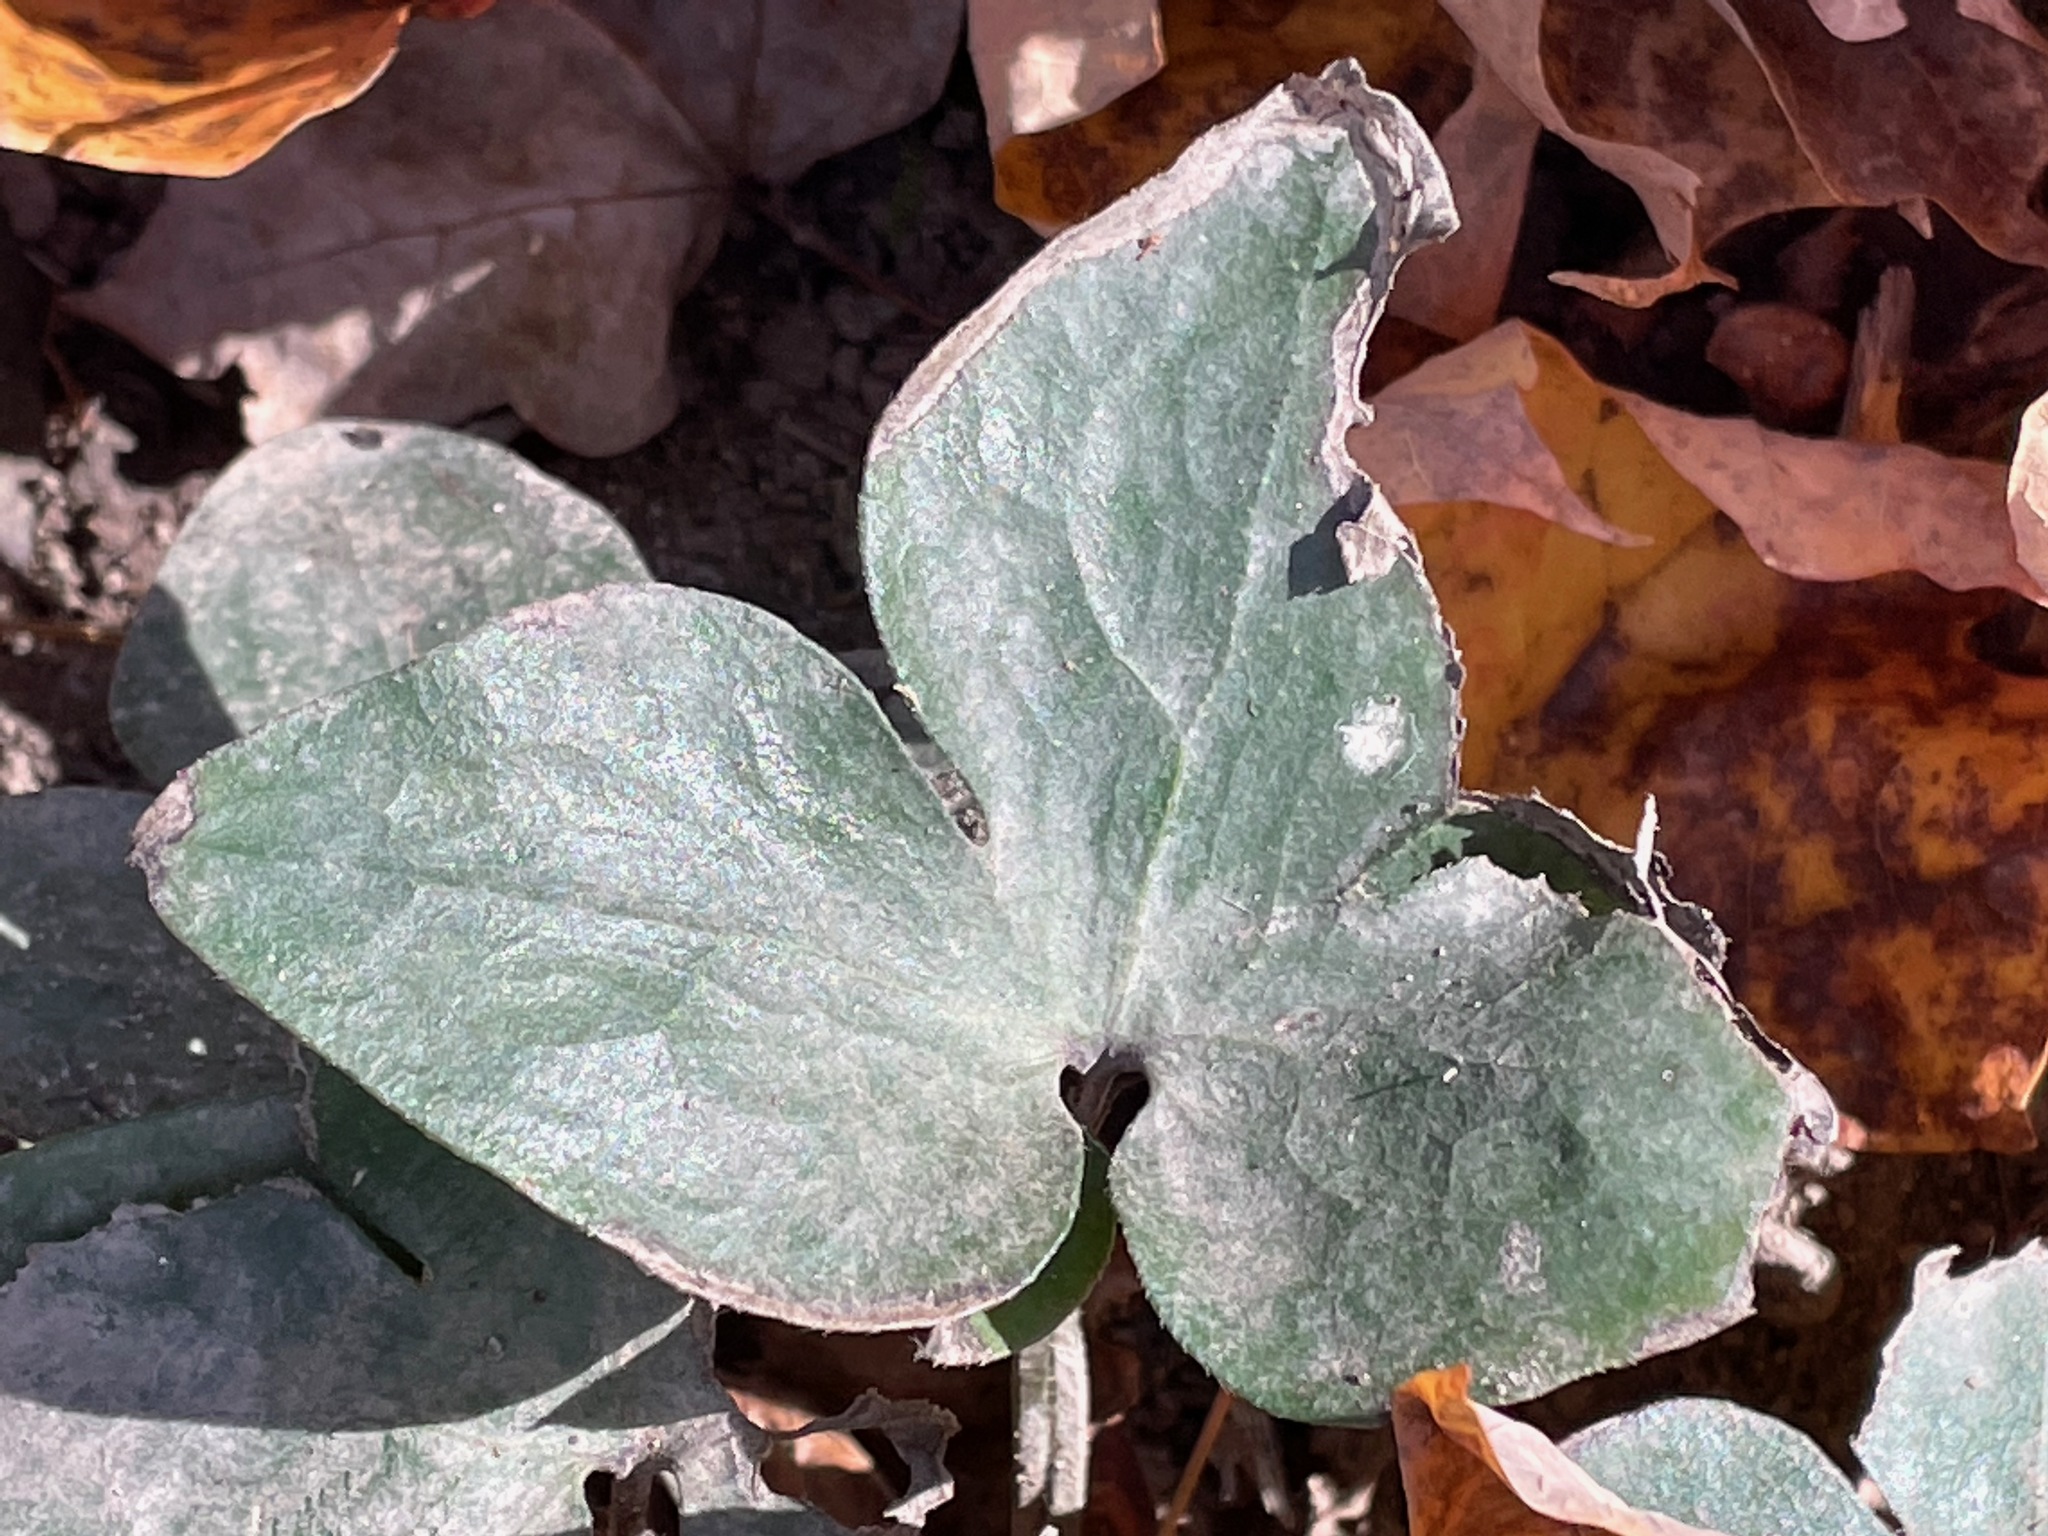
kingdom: Plantae
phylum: Tracheophyta
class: Magnoliopsida
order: Ranunculales
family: Ranunculaceae
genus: Hepatica
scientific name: Hepatica acutiloba
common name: Sharp-lobed hepatica
